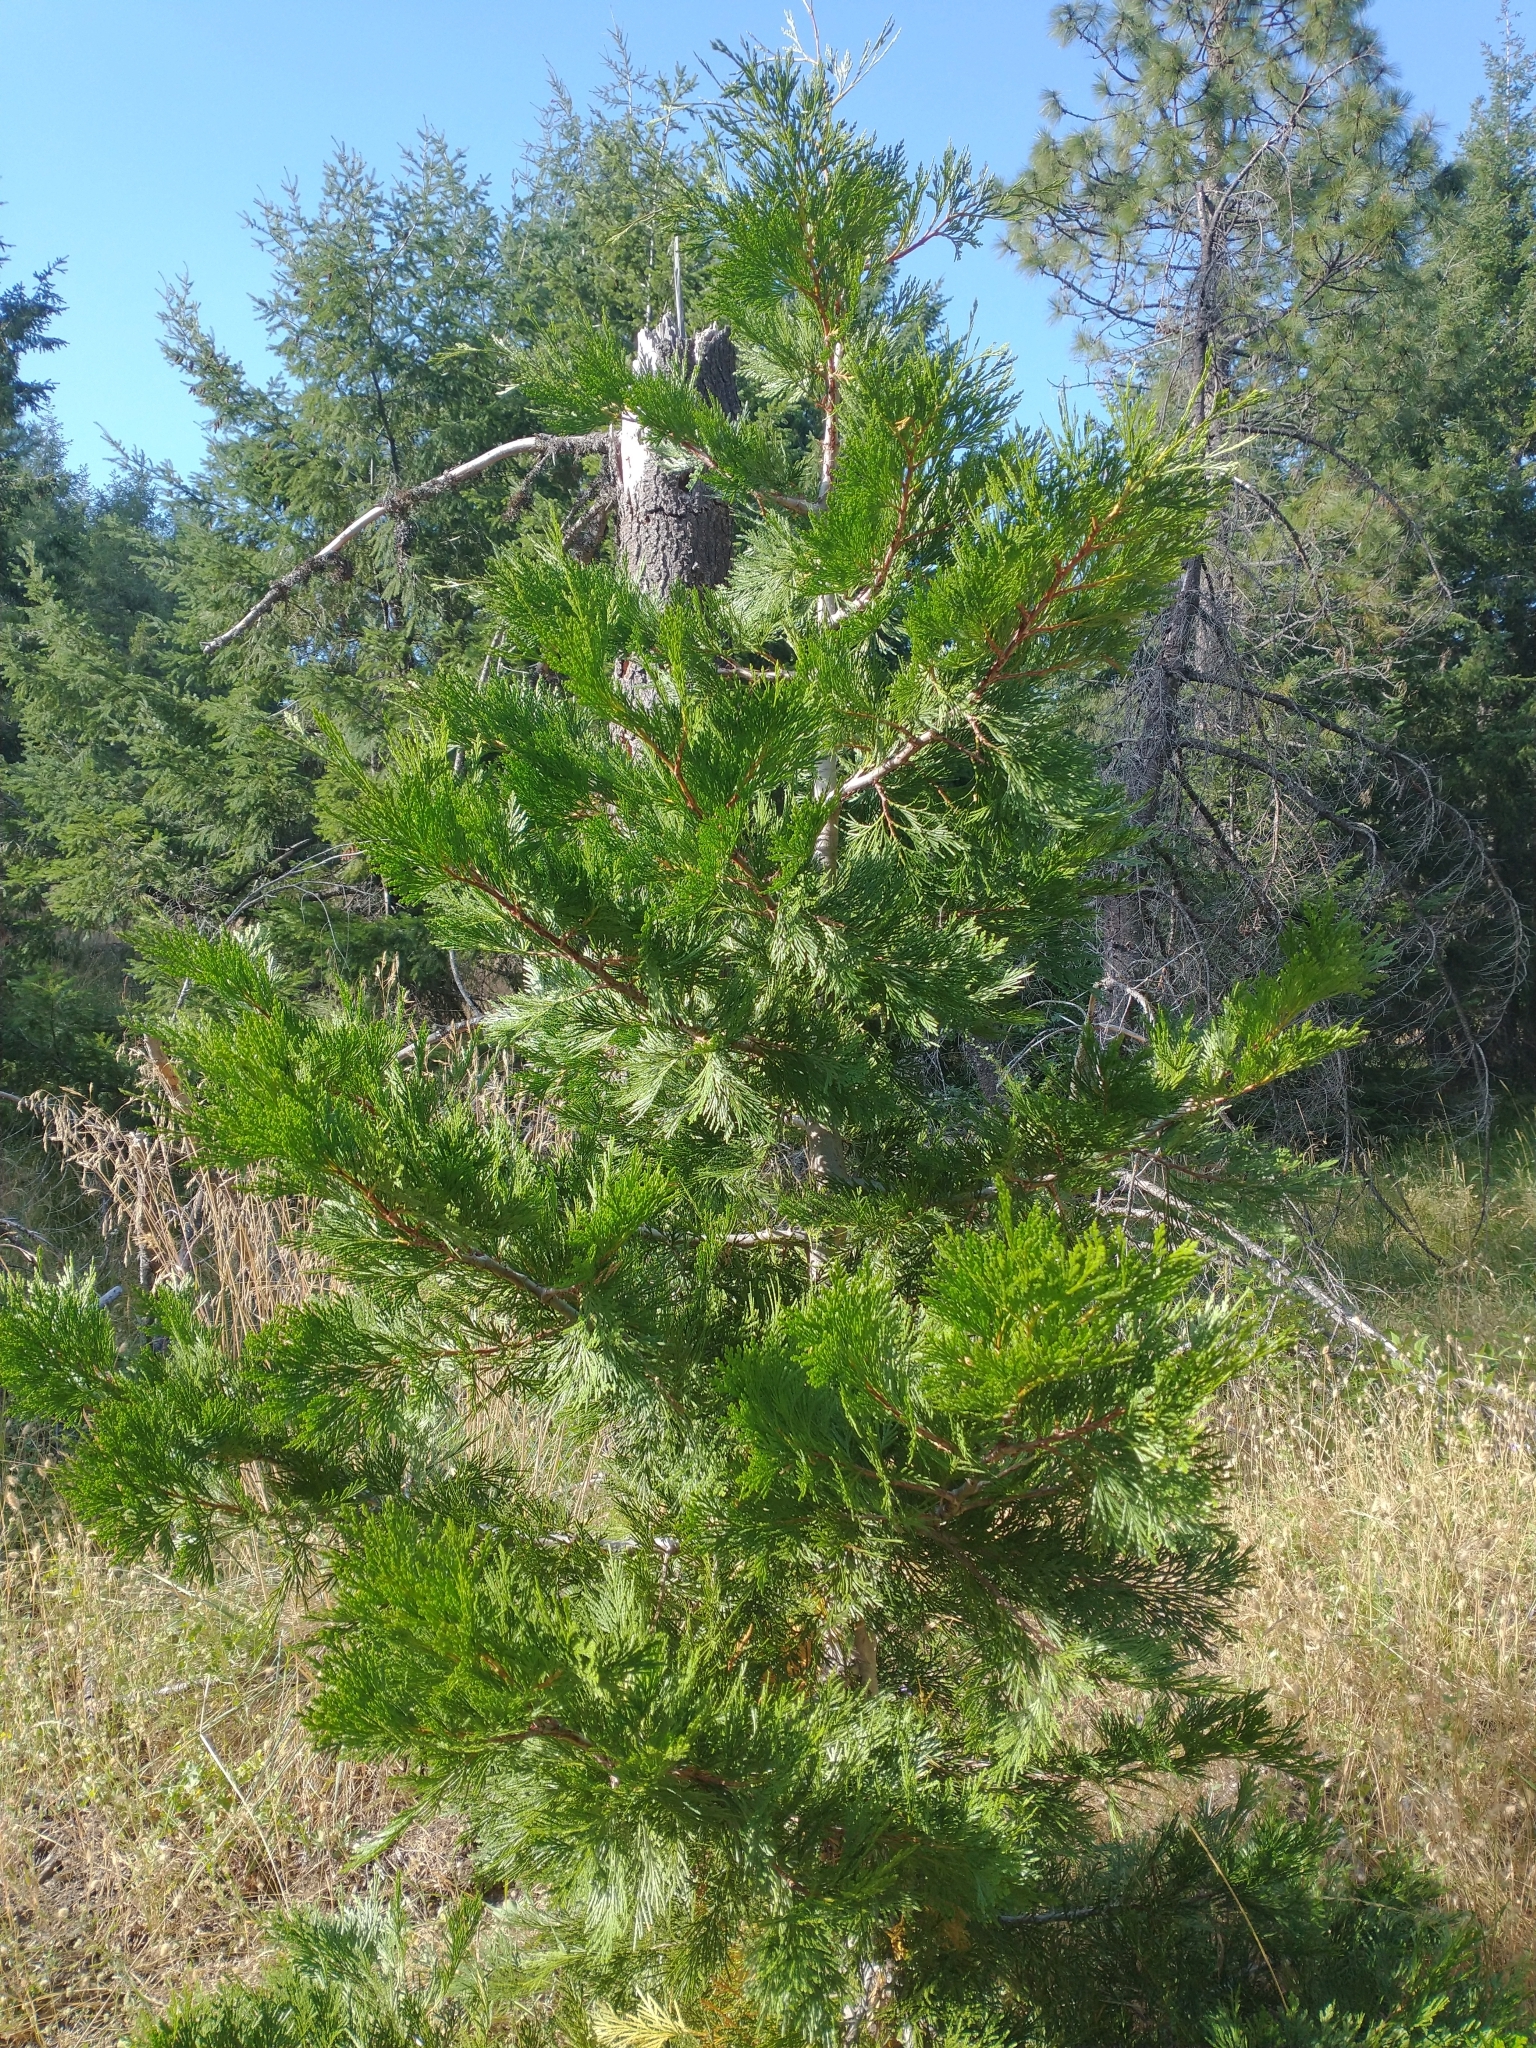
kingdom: Plantae
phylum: Tracheophyta
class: Pinopsida
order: Pinales
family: Cupressaceae
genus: Calocedrus
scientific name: Calocedrus decurrens
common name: Californian incense-cedar
